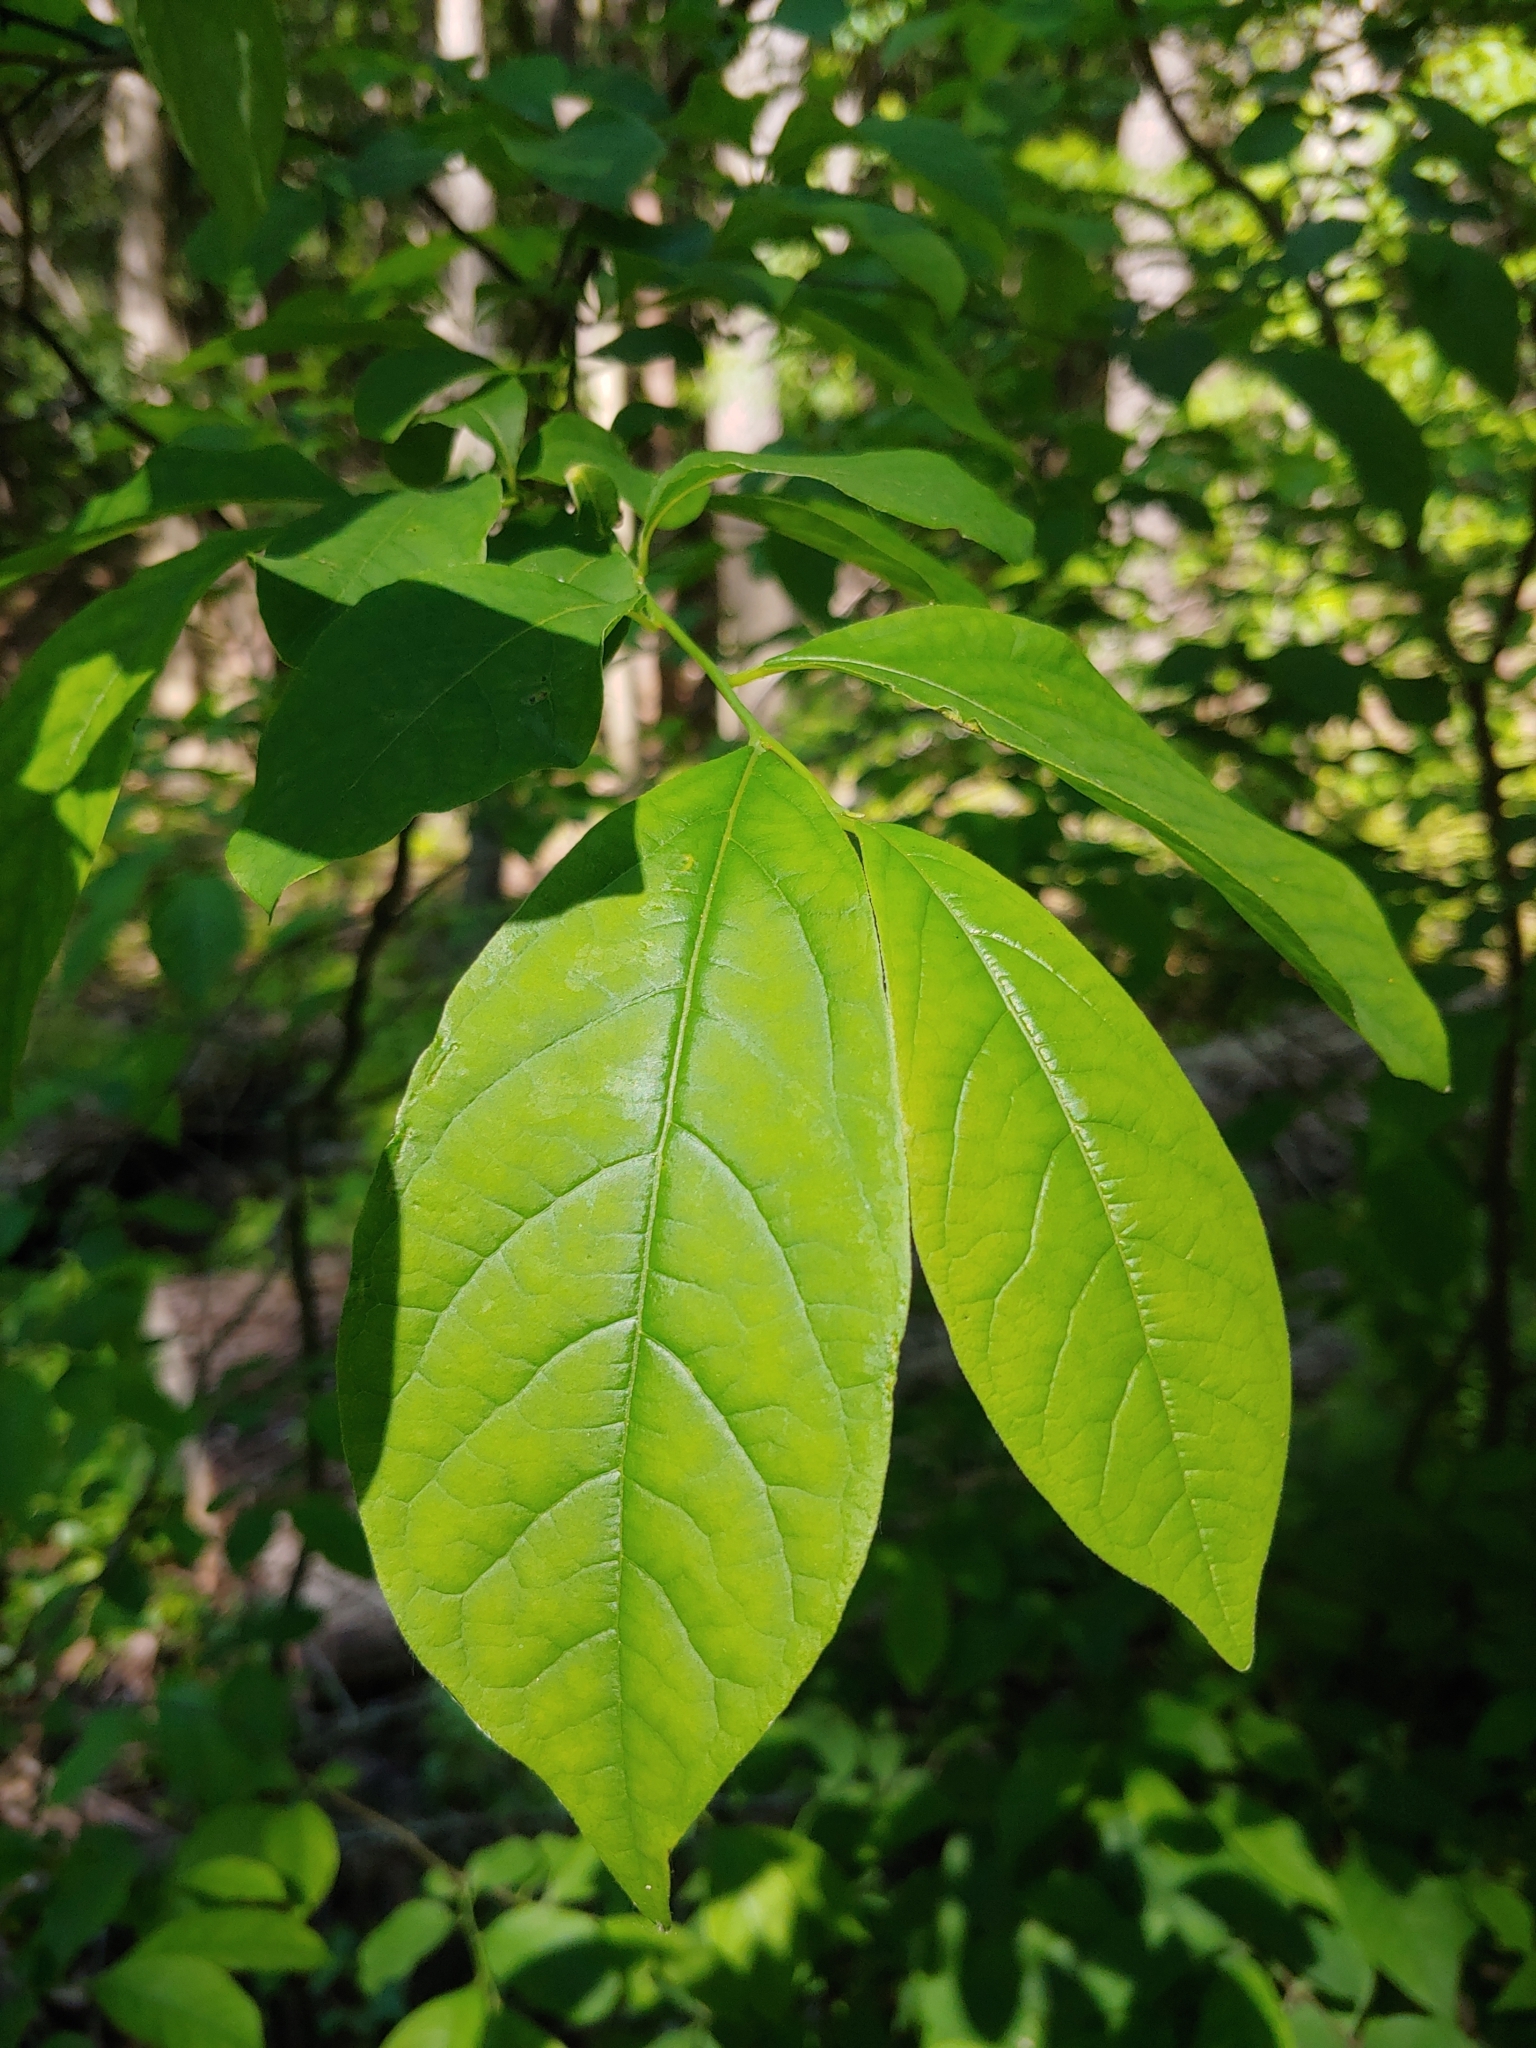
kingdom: Plantae
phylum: Tracheophyta
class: Magnoliopsida
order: Laurales
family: Lauraceae
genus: Lindera
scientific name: Lindera benzoin
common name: Spicebush
